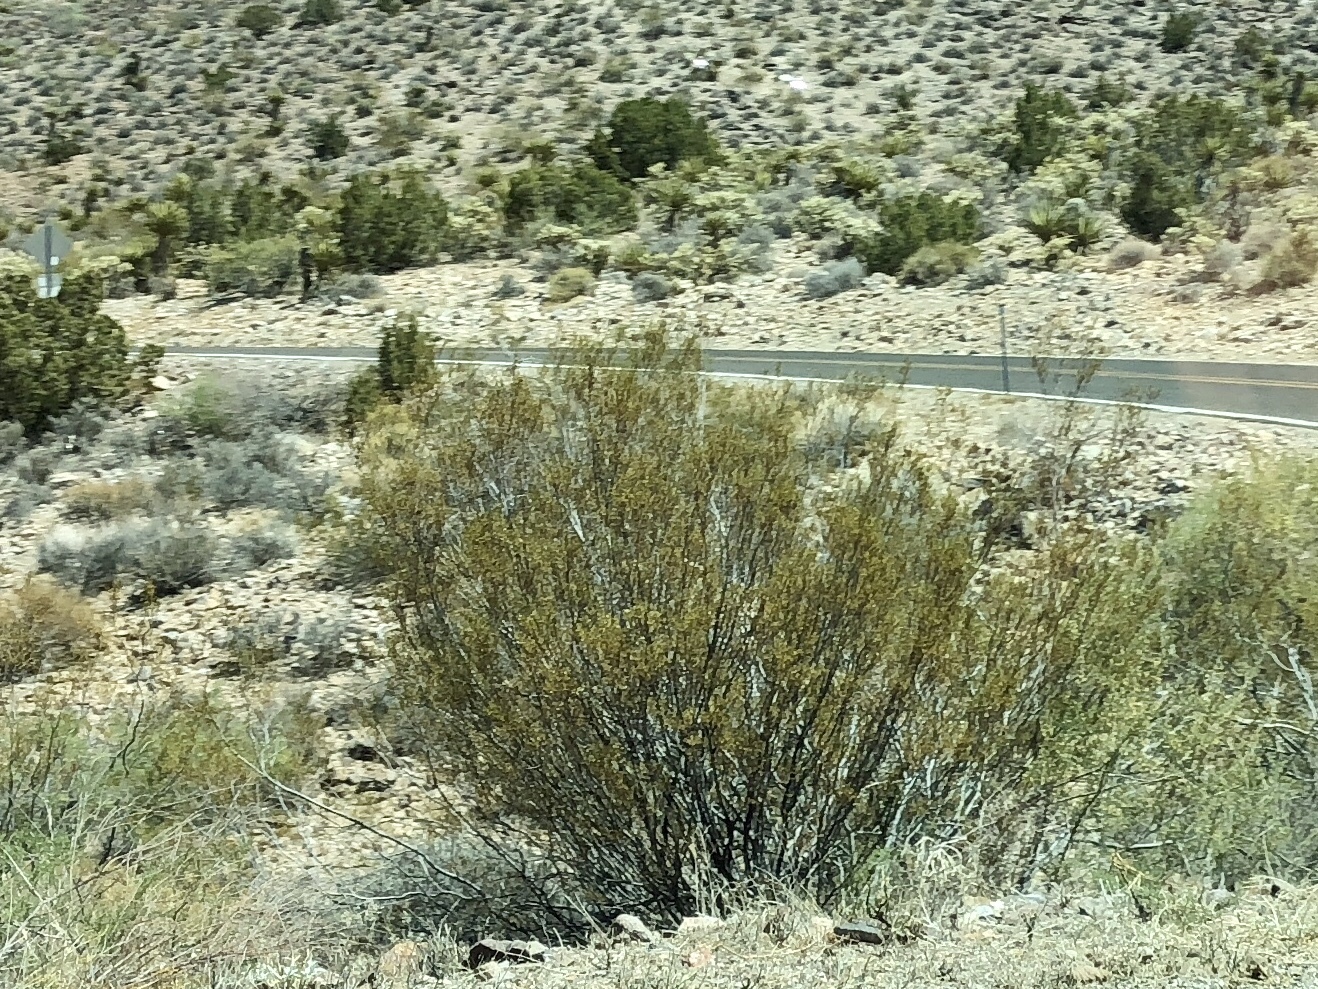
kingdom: Plantae
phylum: Tracheophyta
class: Magnoliopsida
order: Zygophyllales
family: Zygophyllaceae
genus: Larrea
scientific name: Larrea tridentata
